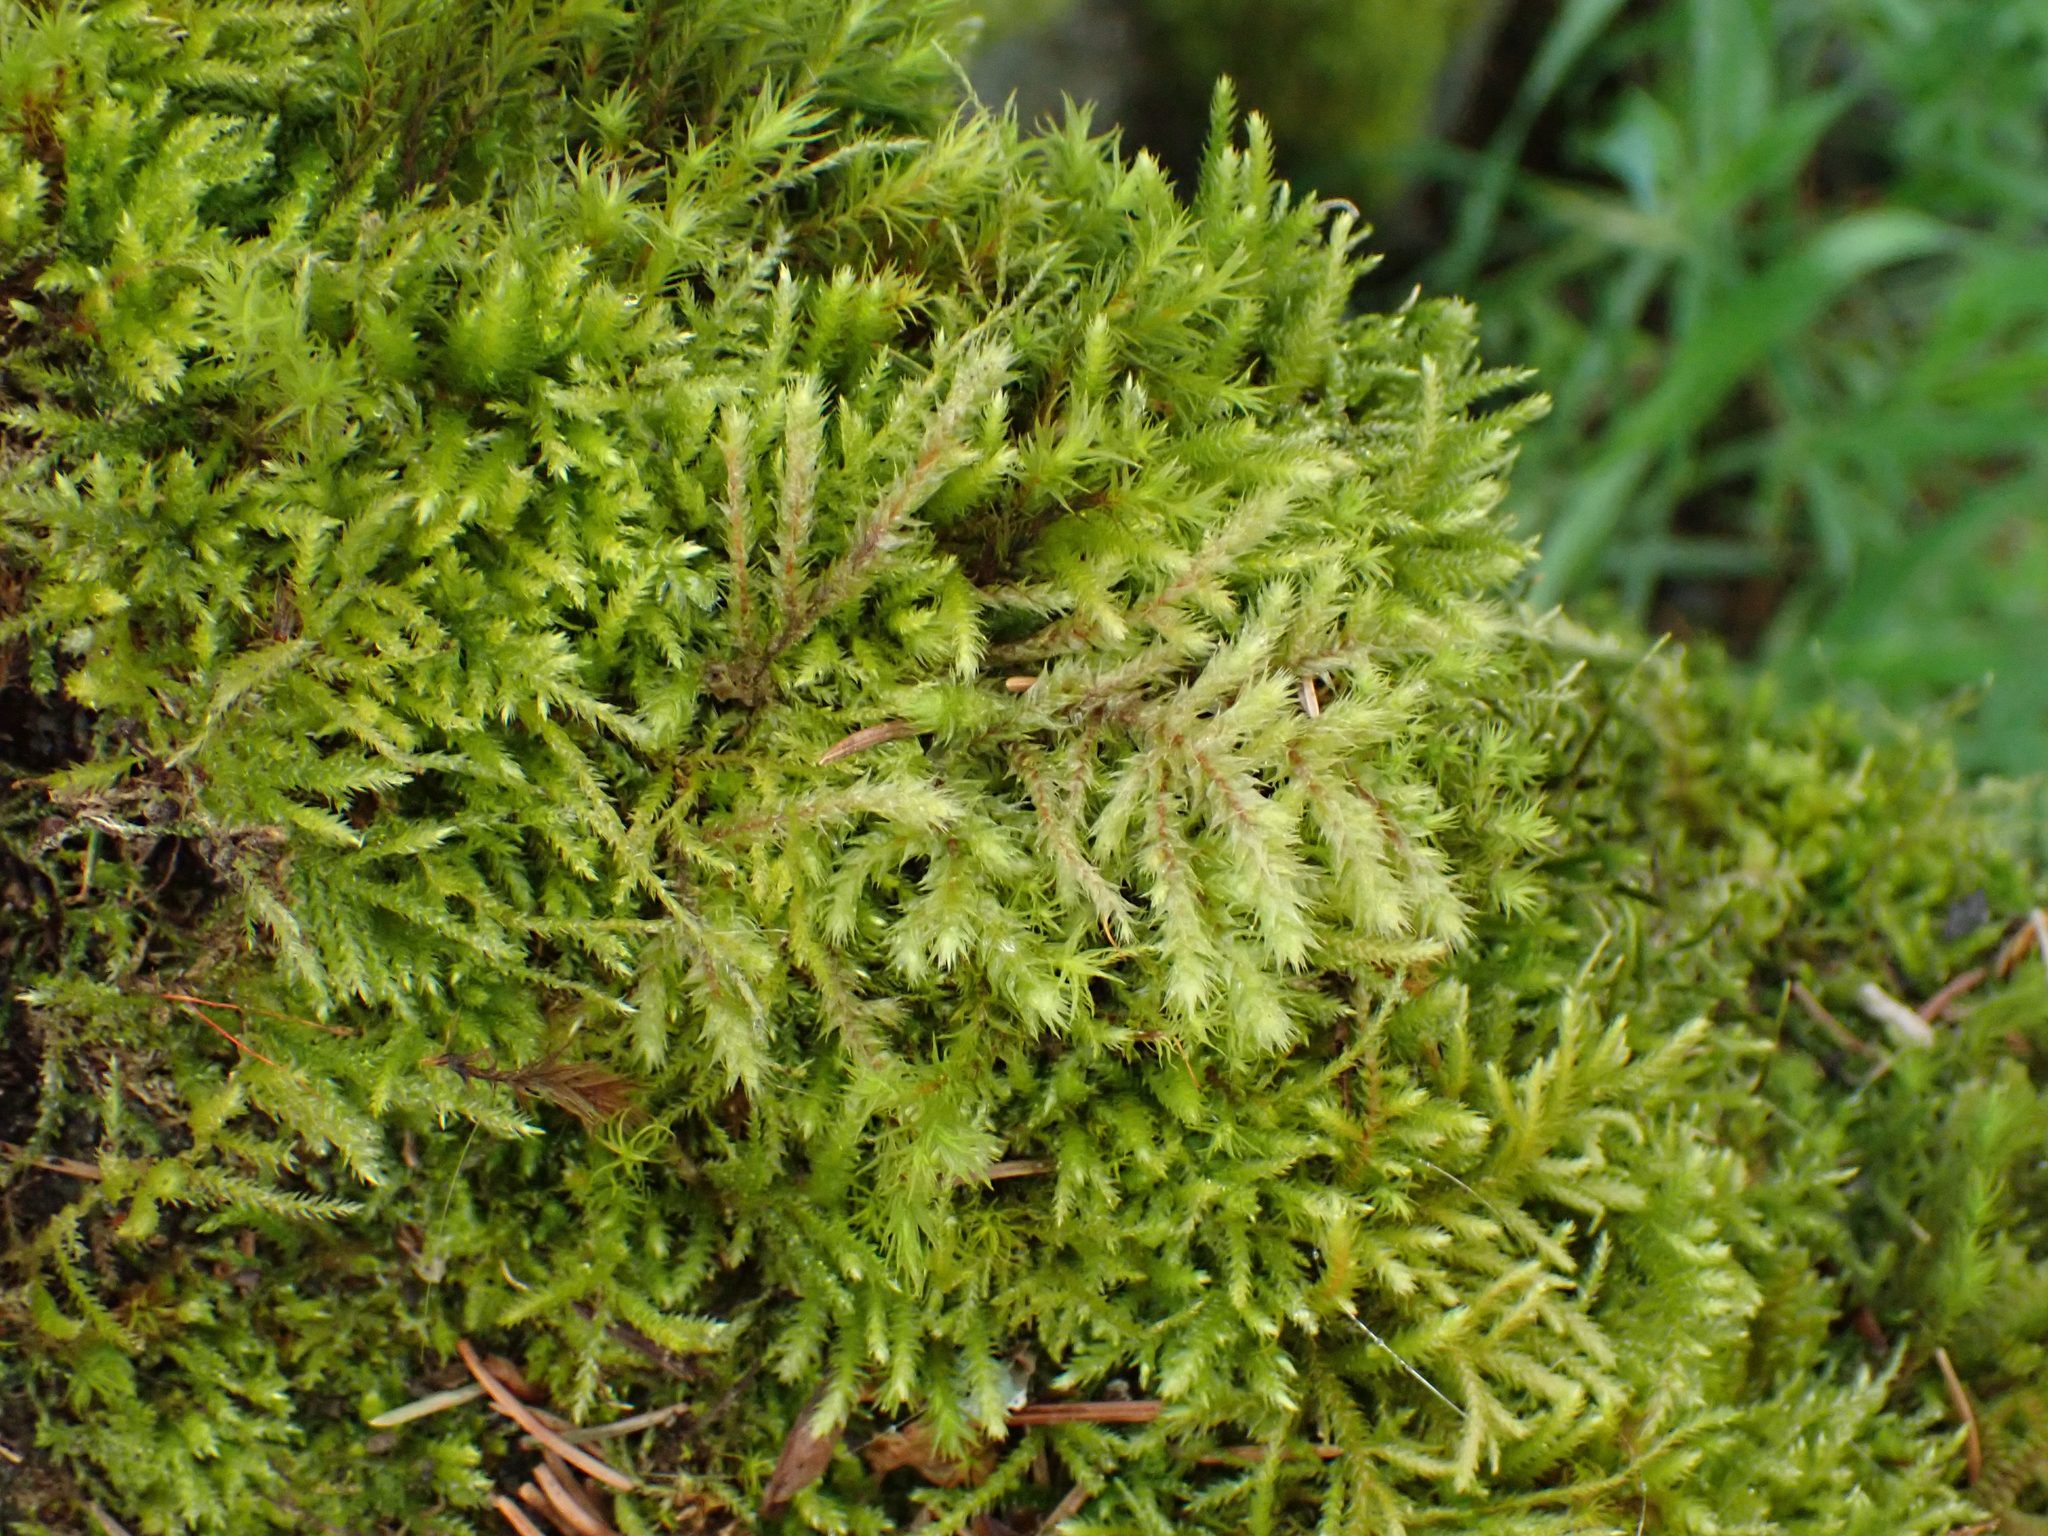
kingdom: Plantae
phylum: Bryophyta
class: Bryopsida
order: Hypnales
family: Hylocomiaceae
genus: Hylocomiadelphus
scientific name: Hylocomiadelphus triquetrus
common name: Rough goose neck moss
